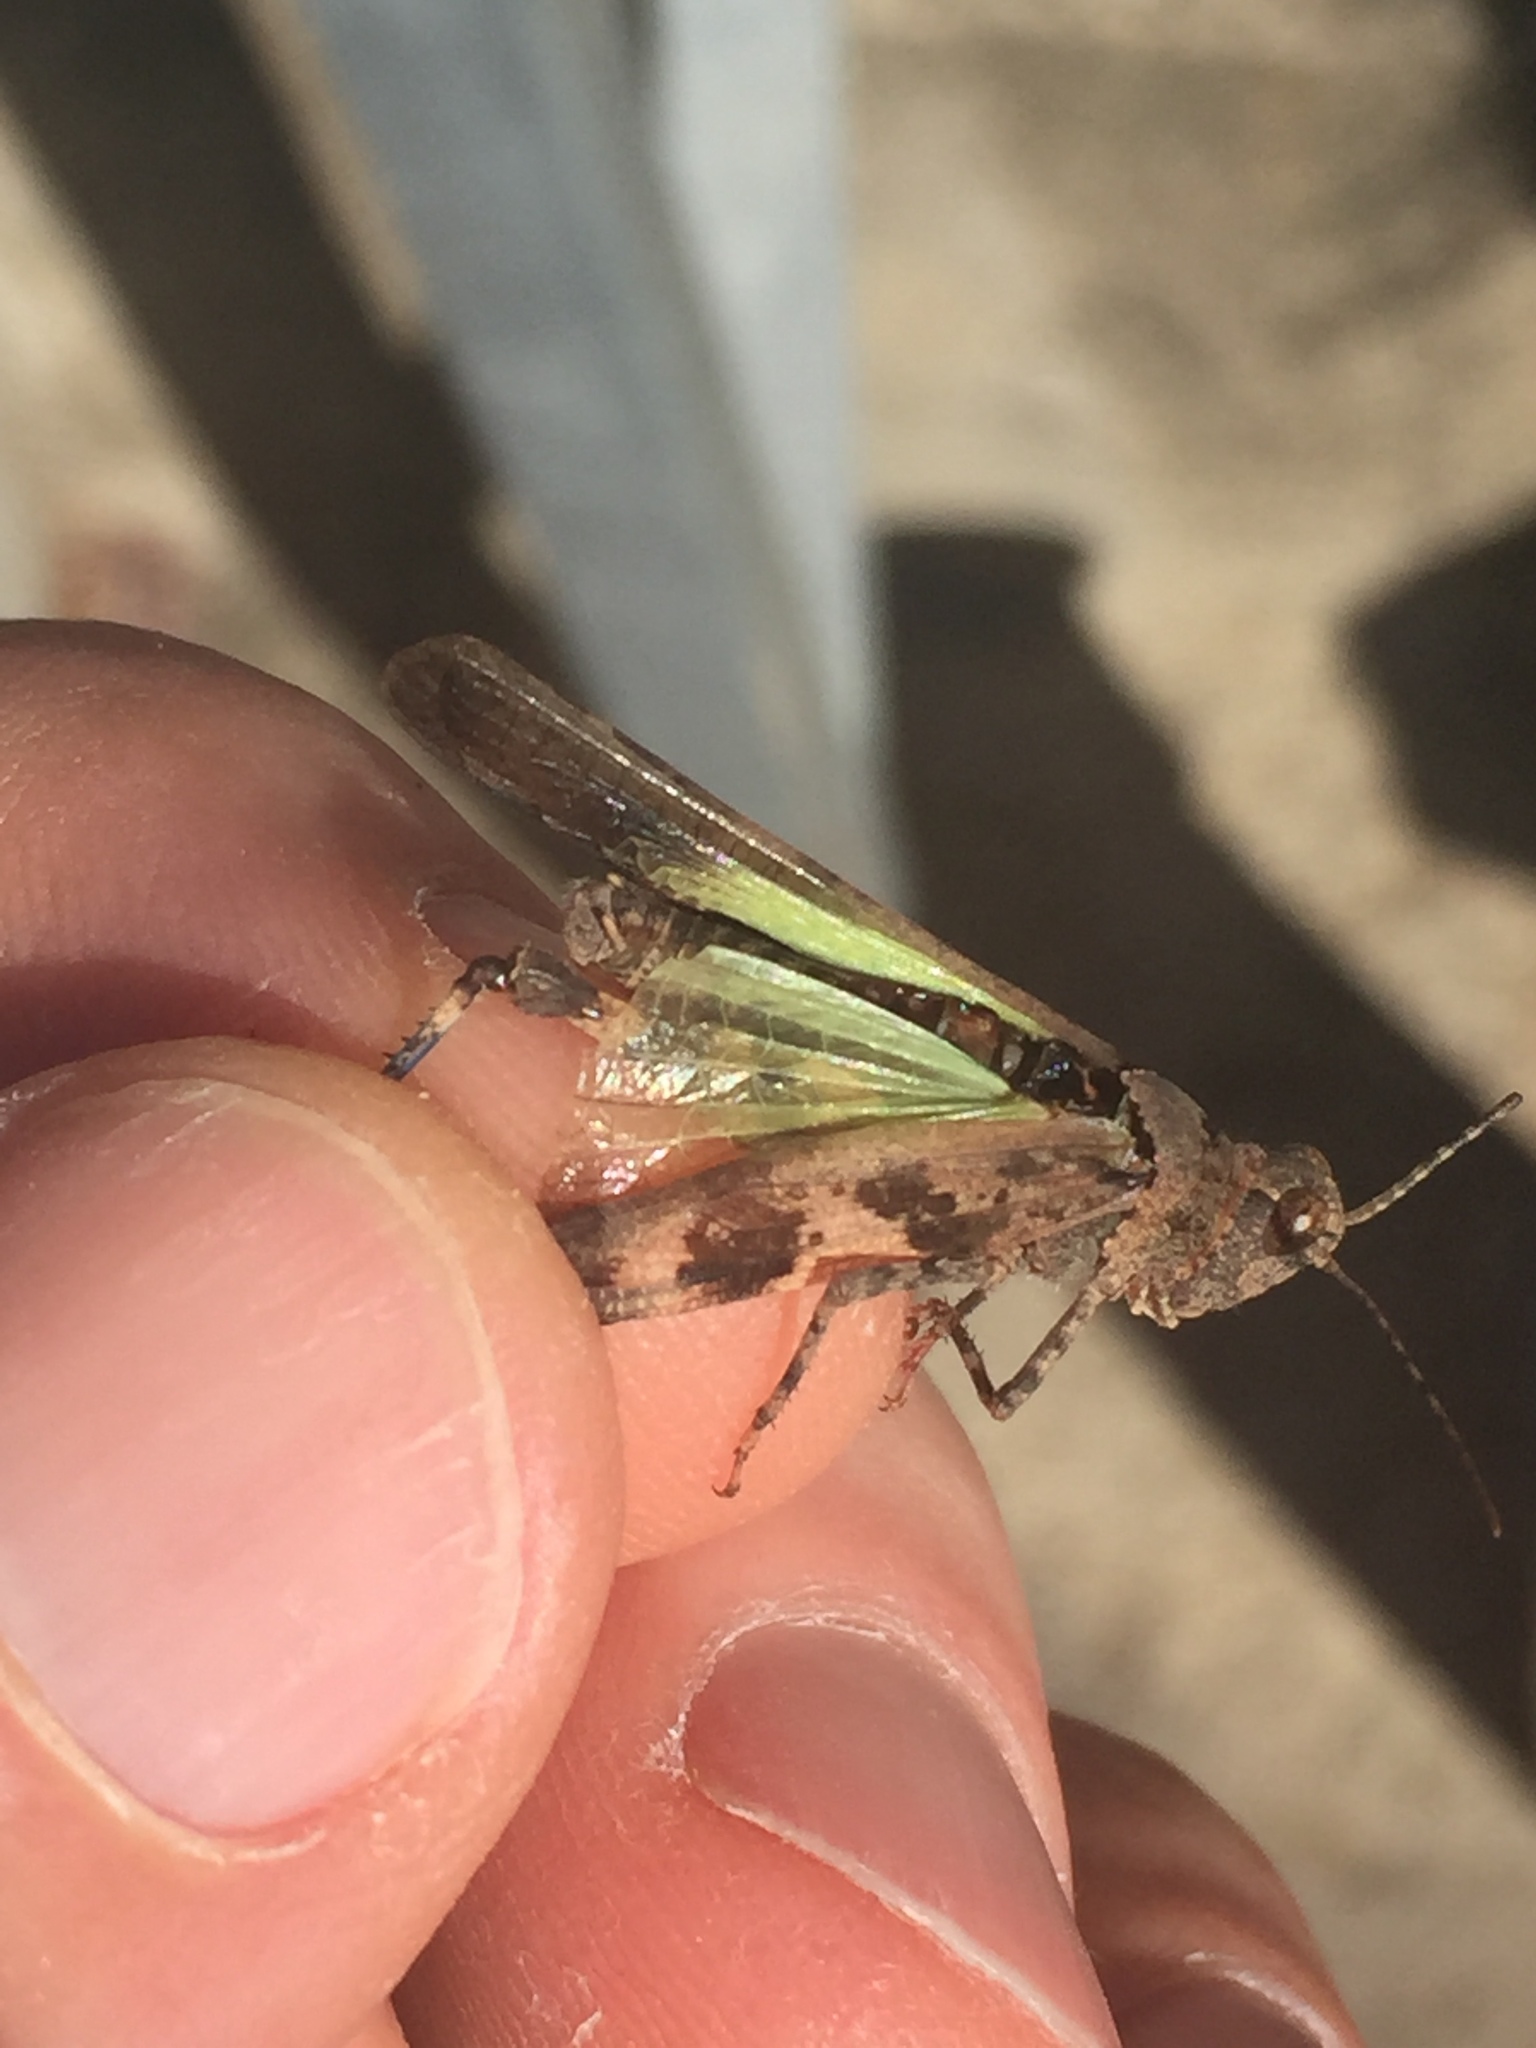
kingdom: Animalia
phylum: Arthropoda
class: Insecta
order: Orthoptera
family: Acrididae
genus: Trimerotropis
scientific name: Trimerotropis fontana
